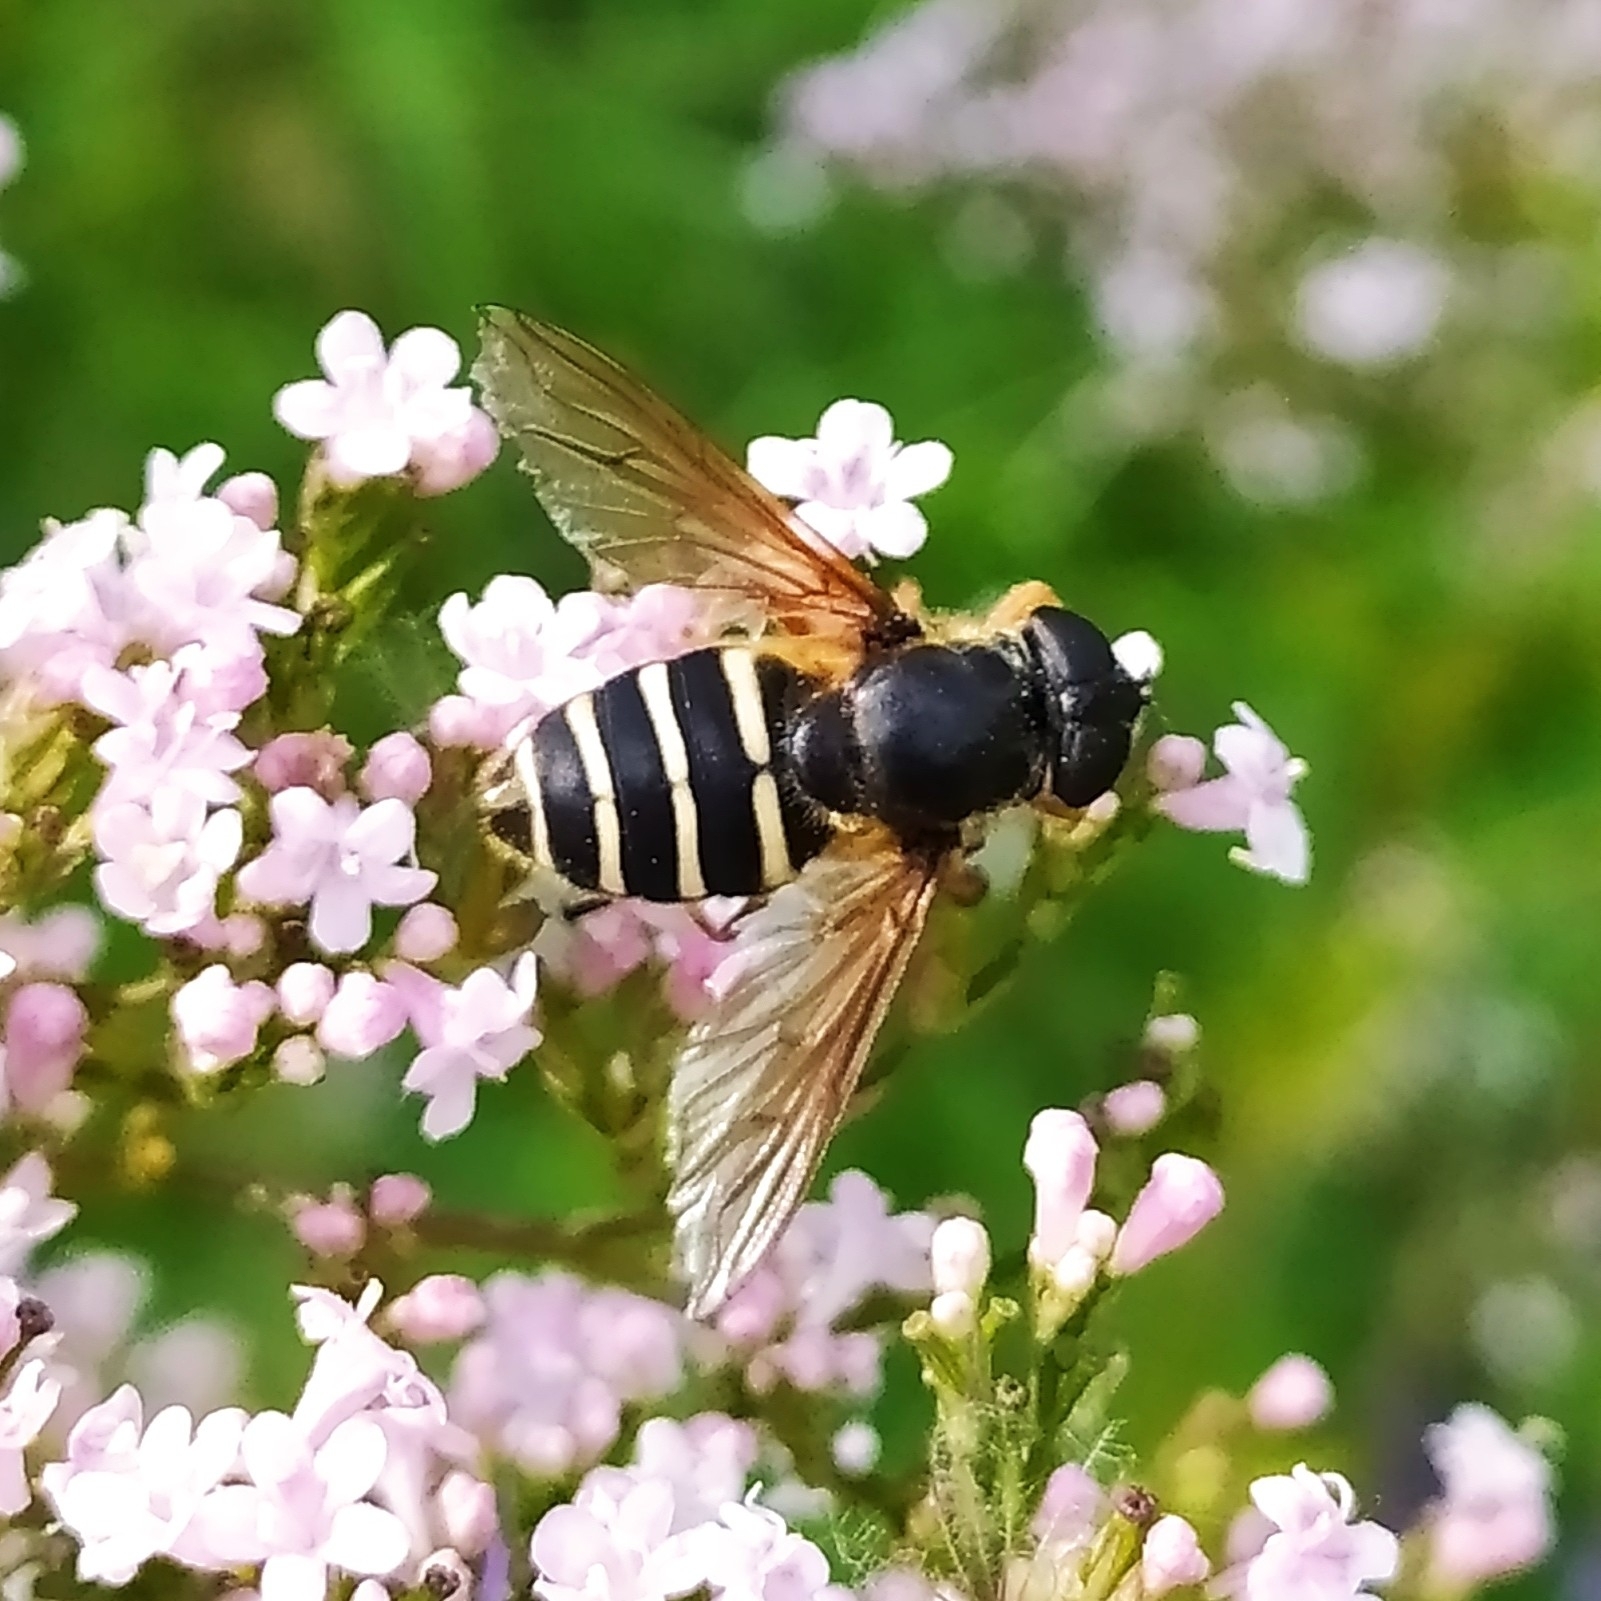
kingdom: Animalia
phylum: Arthropoda
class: Insecta
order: Diptera
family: Syrphidae
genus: Sericomyia
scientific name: Sericomyia nigra
